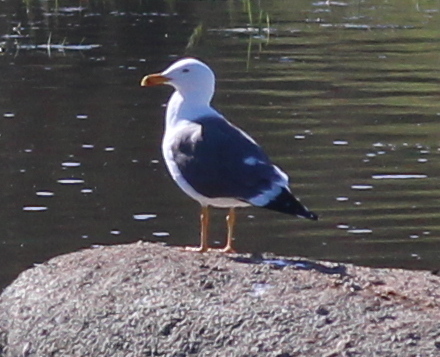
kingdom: Animalia
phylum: Chordata
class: Aves
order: Charadriiformes
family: Laridae
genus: Larus
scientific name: Larus fuscus
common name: Lesser black-backed gull
